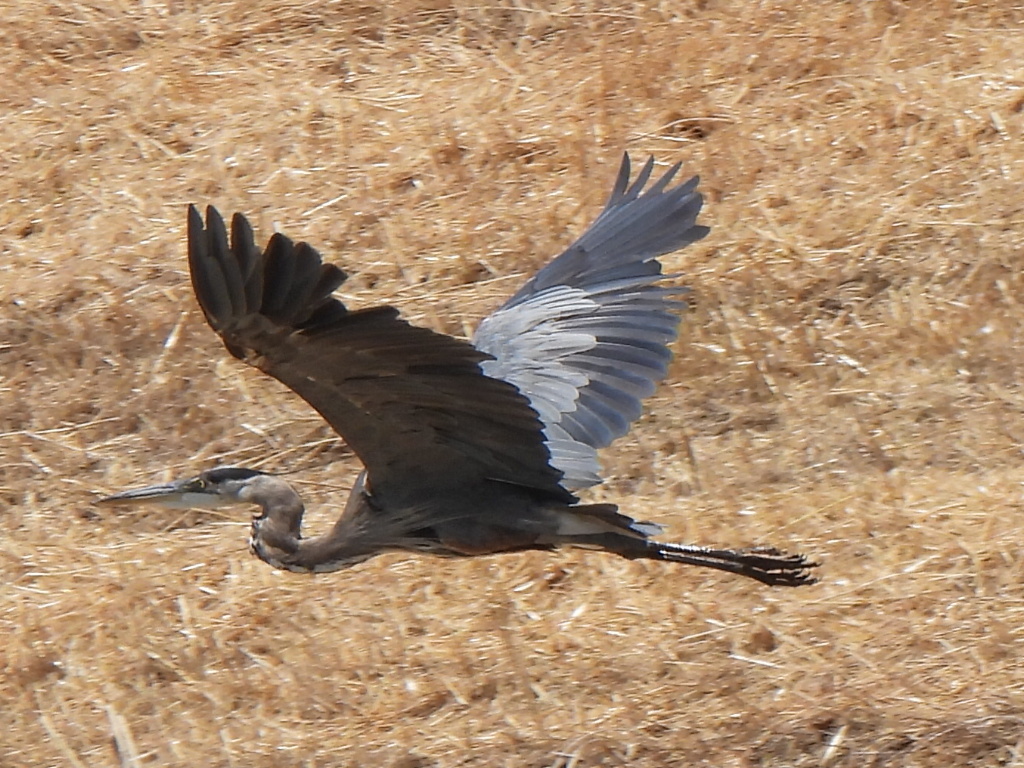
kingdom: Animalia
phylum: Chordata
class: Aves
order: Pelecaniformes
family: Ardeidae
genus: Ardea
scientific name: Ardea herodias
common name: Great blue heron
